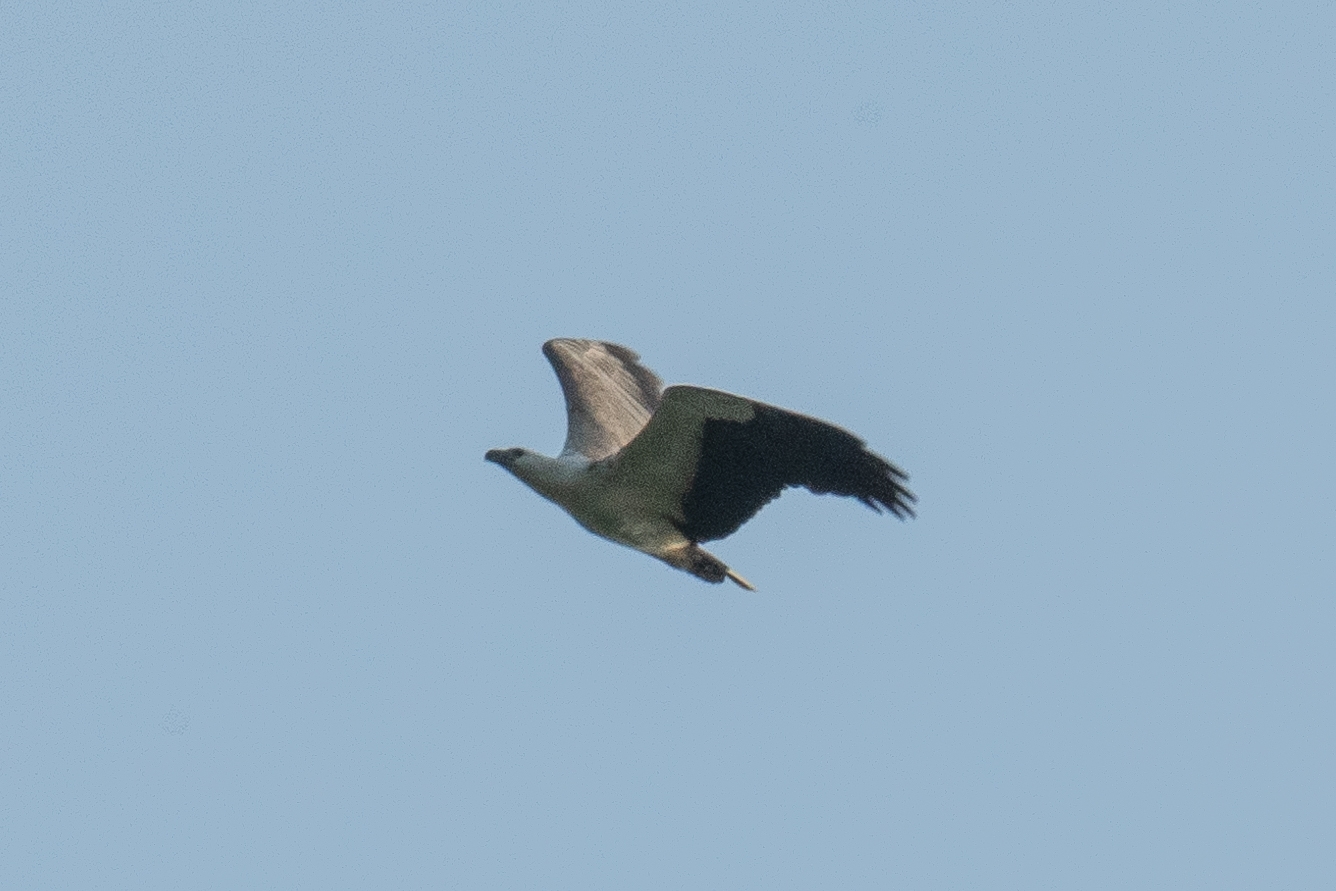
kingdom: Animalia
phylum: Chordata
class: Aves
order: Accipitriformes
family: Accipitridae
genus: Haliaeetus
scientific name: Haliaeetus leucogaster
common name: White-bellied sea eagle
